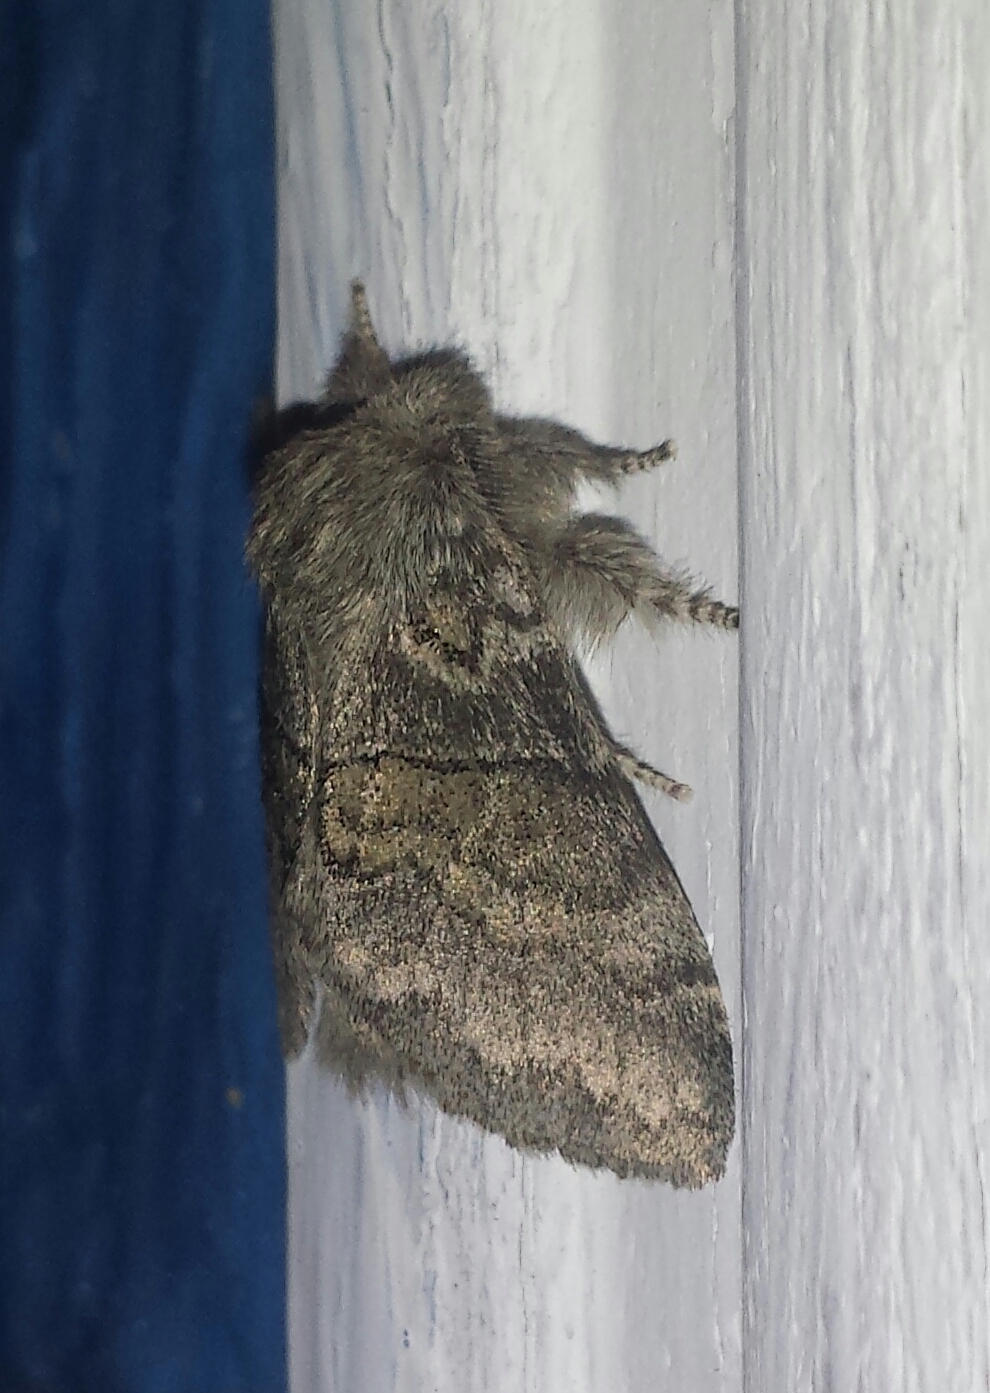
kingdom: Animalia
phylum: Arthropoda
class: Insecta
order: Lepidoptera
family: Notodontidae
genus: Gluphisia
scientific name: Gluphisia septentrionis
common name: Common gluphisia
